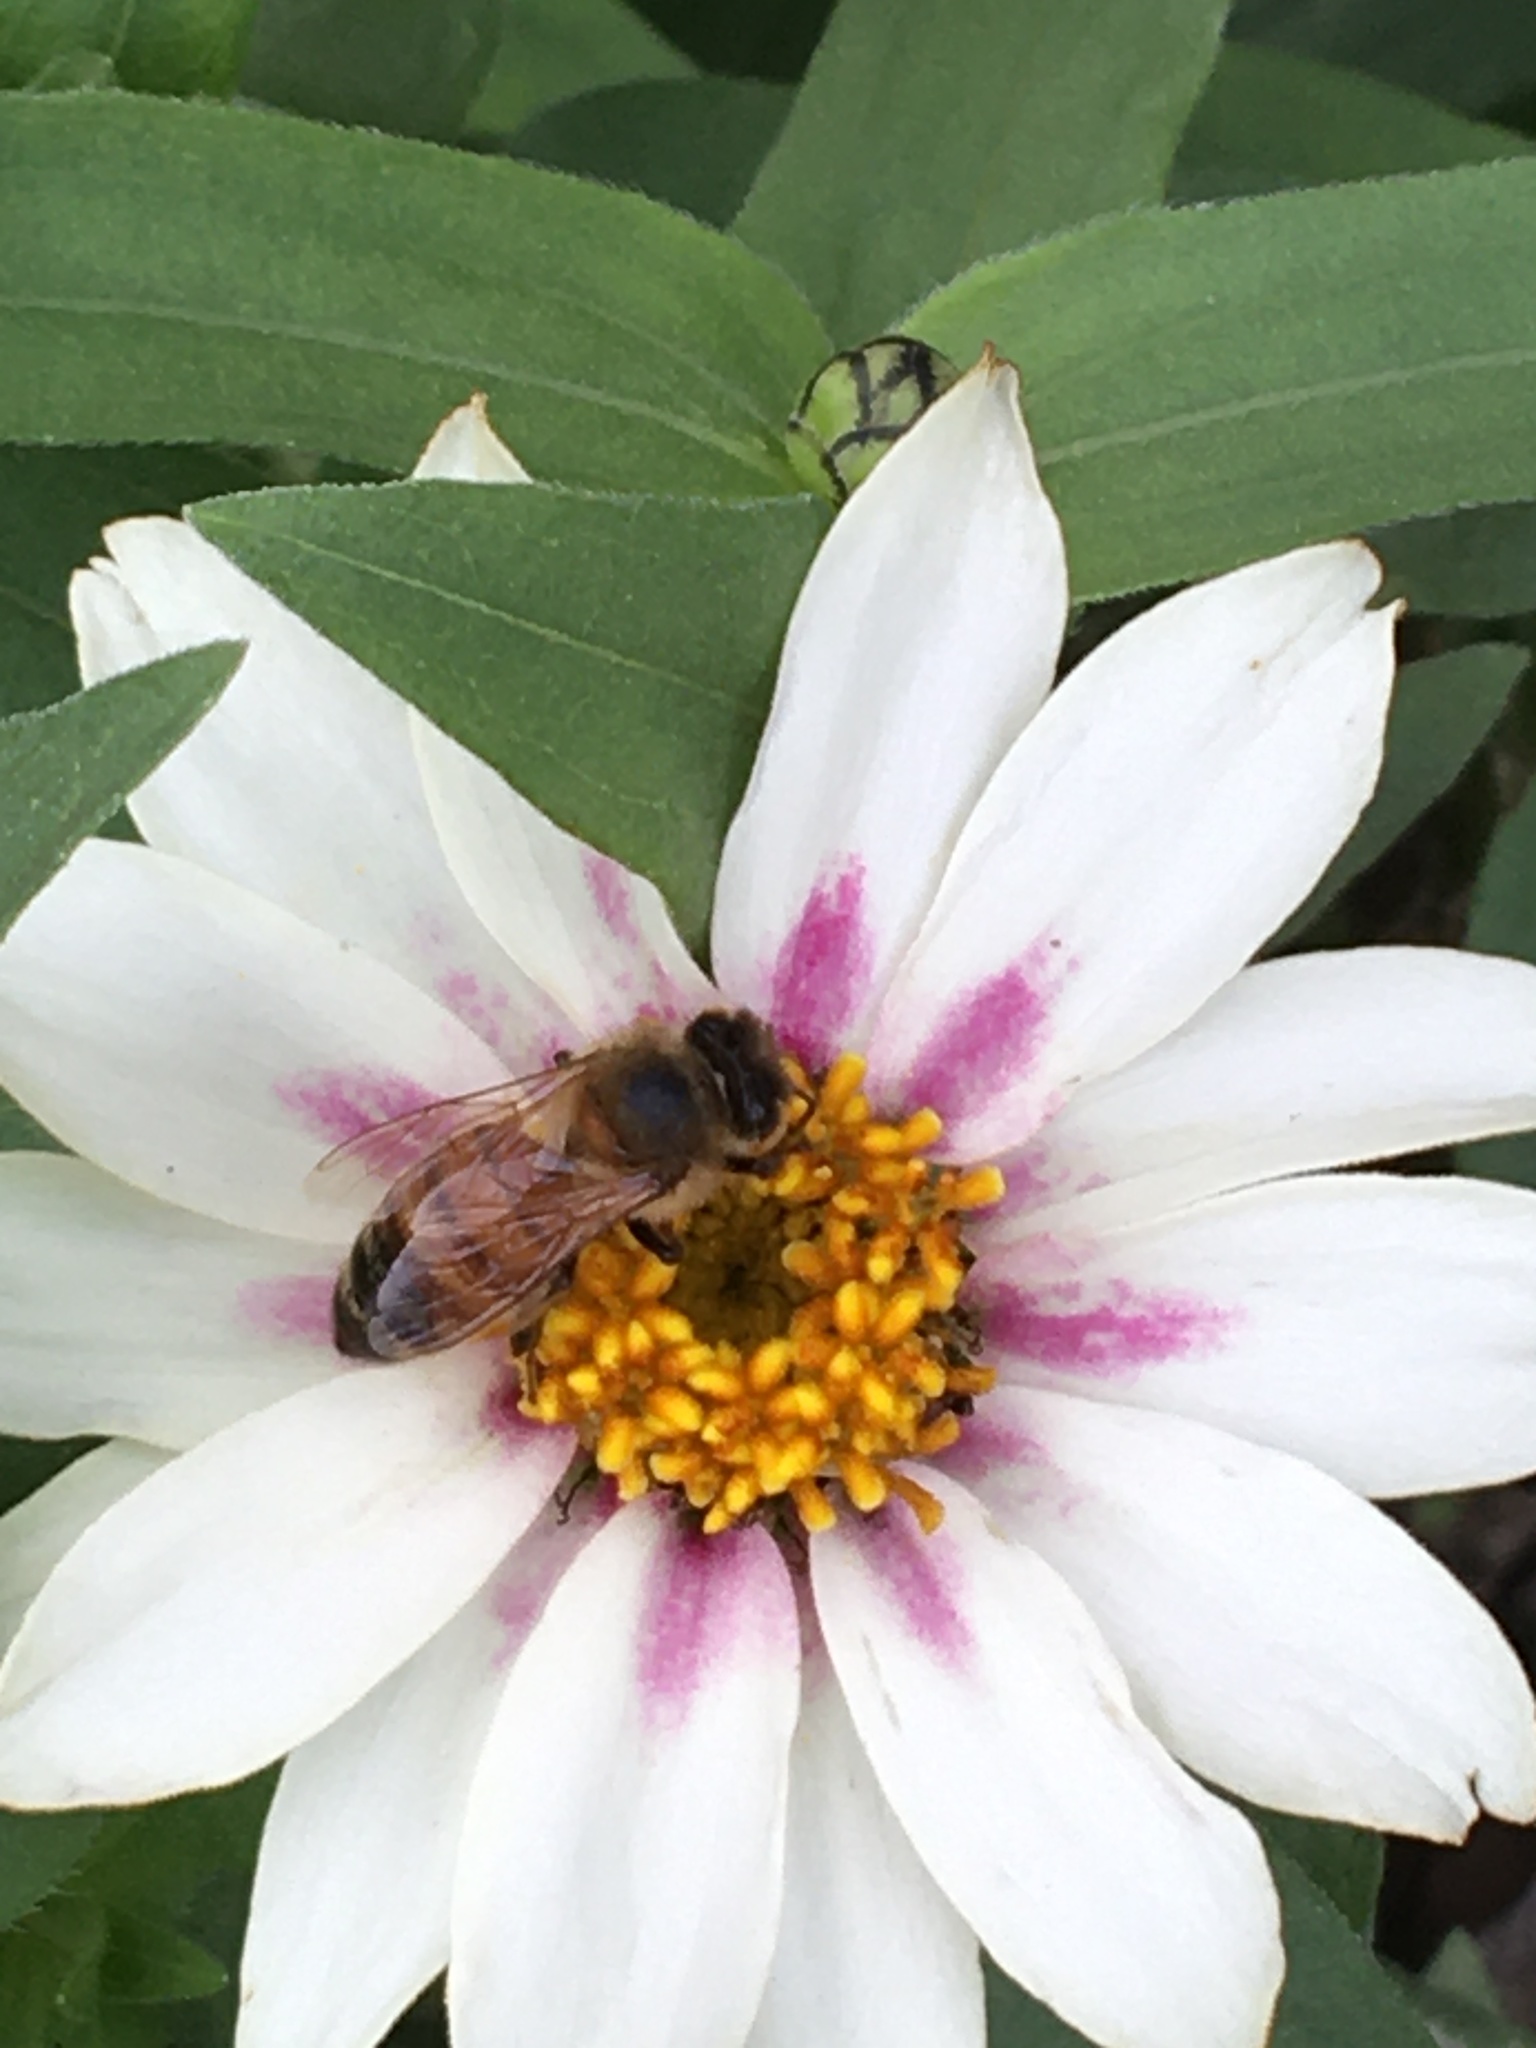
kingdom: Animalia
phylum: Arthropoda
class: Insecta
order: Hymenoptera
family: Apidae
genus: Apis
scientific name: Apis mellifera
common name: Honey bee
